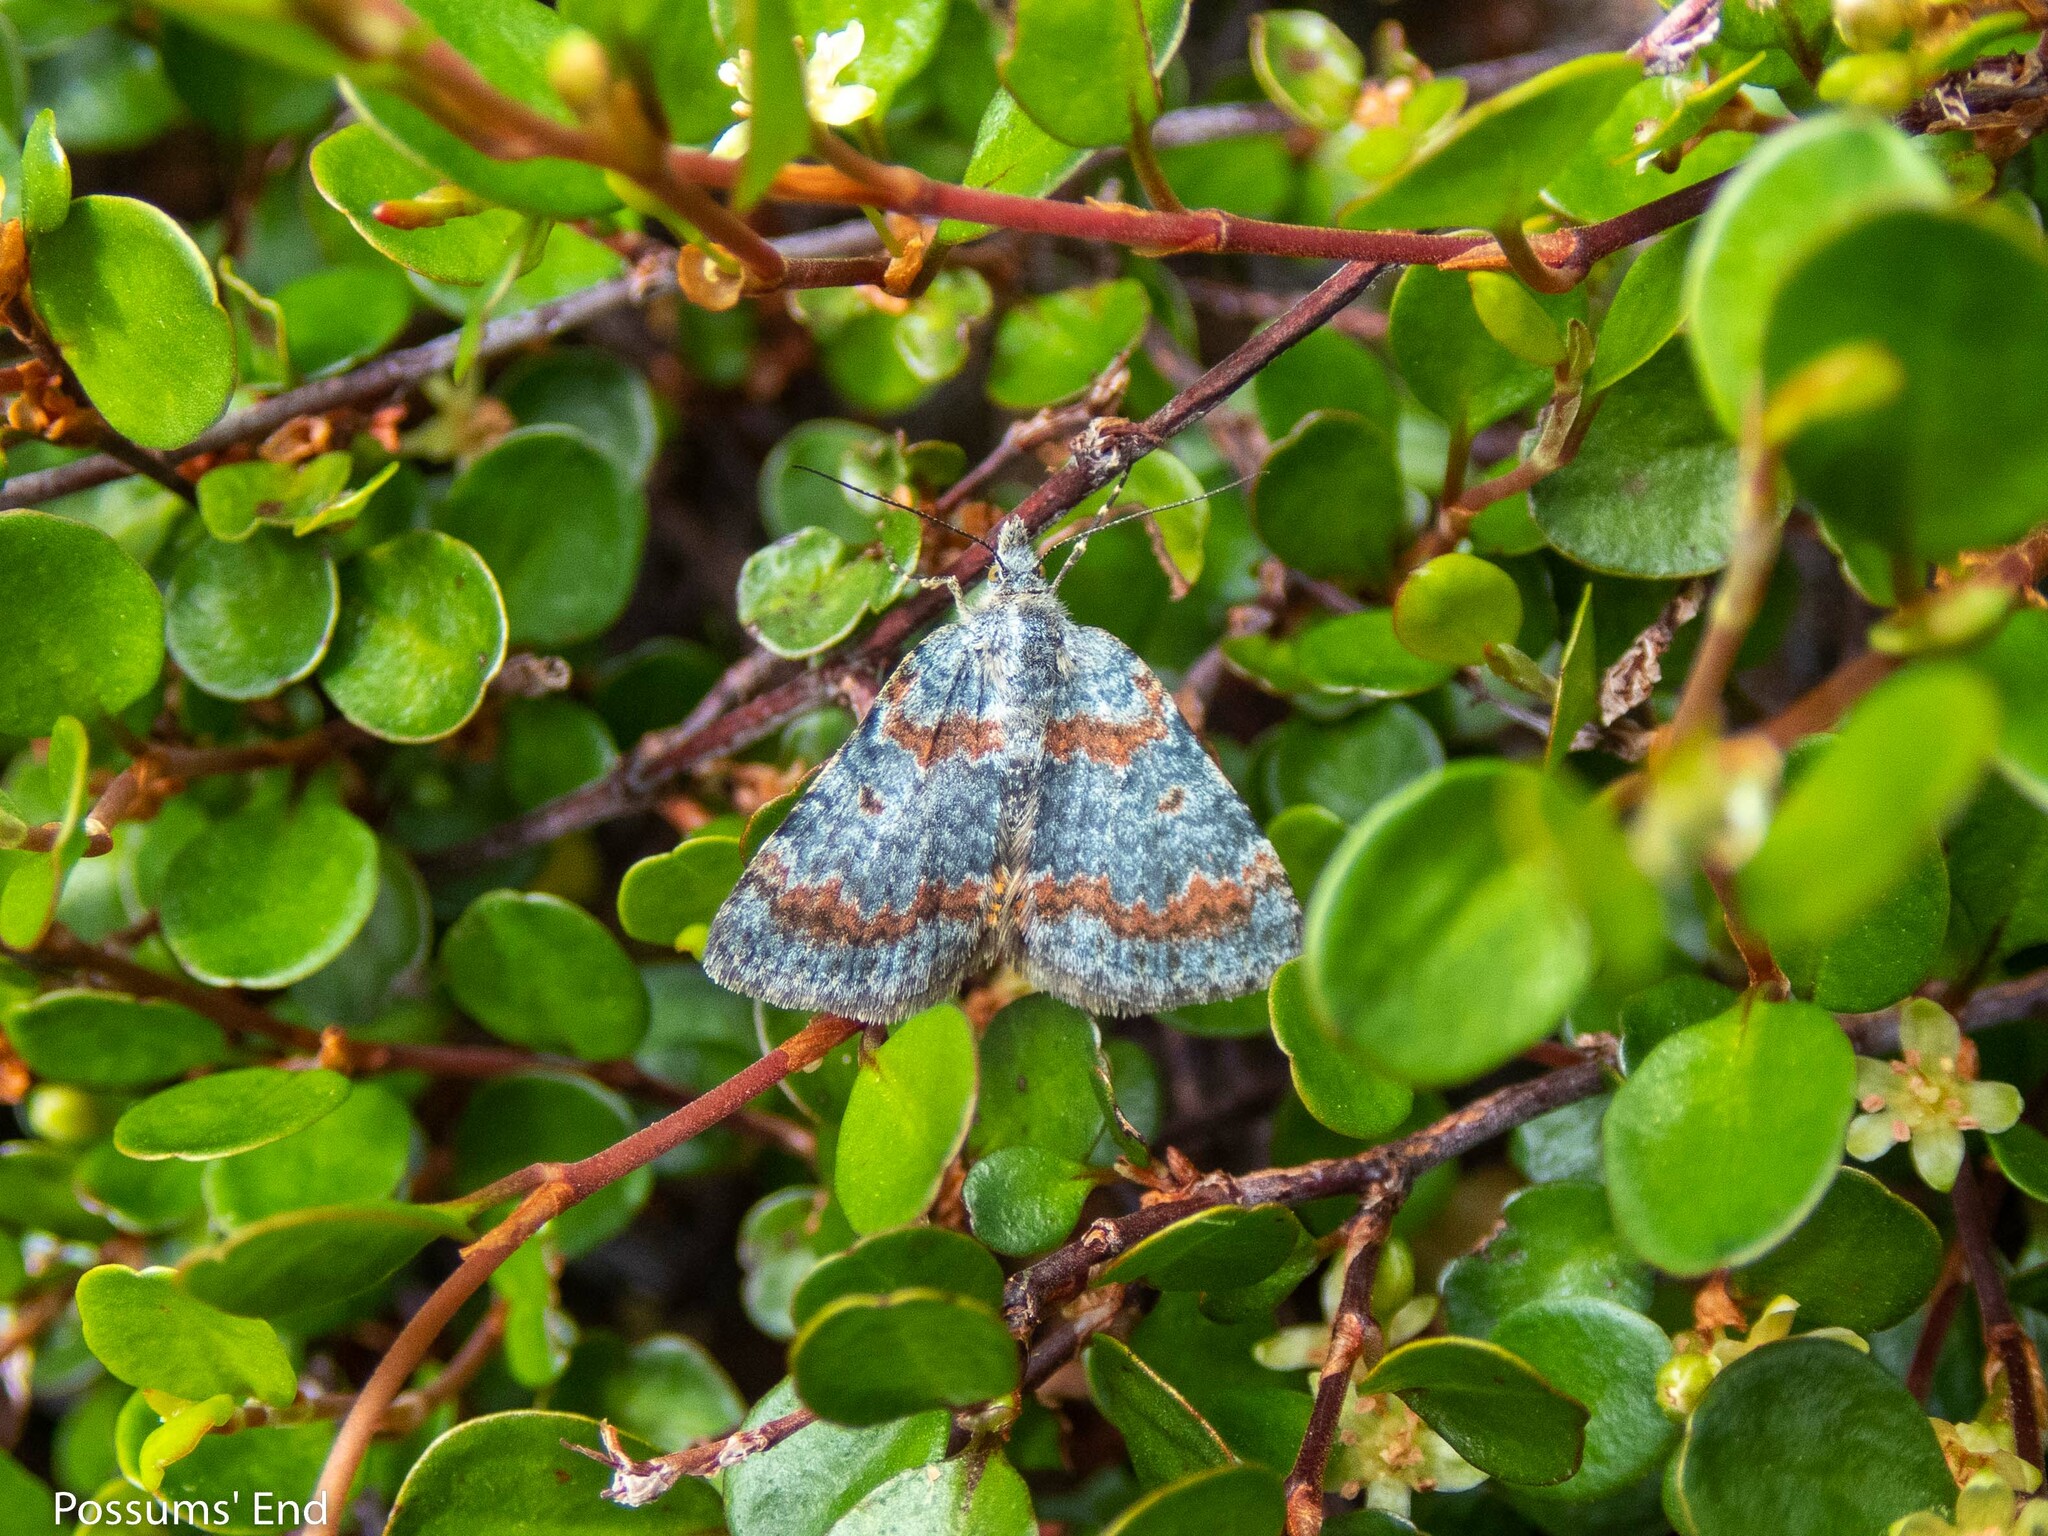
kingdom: Animalia
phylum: Arthropoda
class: Insecta
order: Lepidoptera
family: Geometridae
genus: Paranotoreas
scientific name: Paranotoreas zopyra
